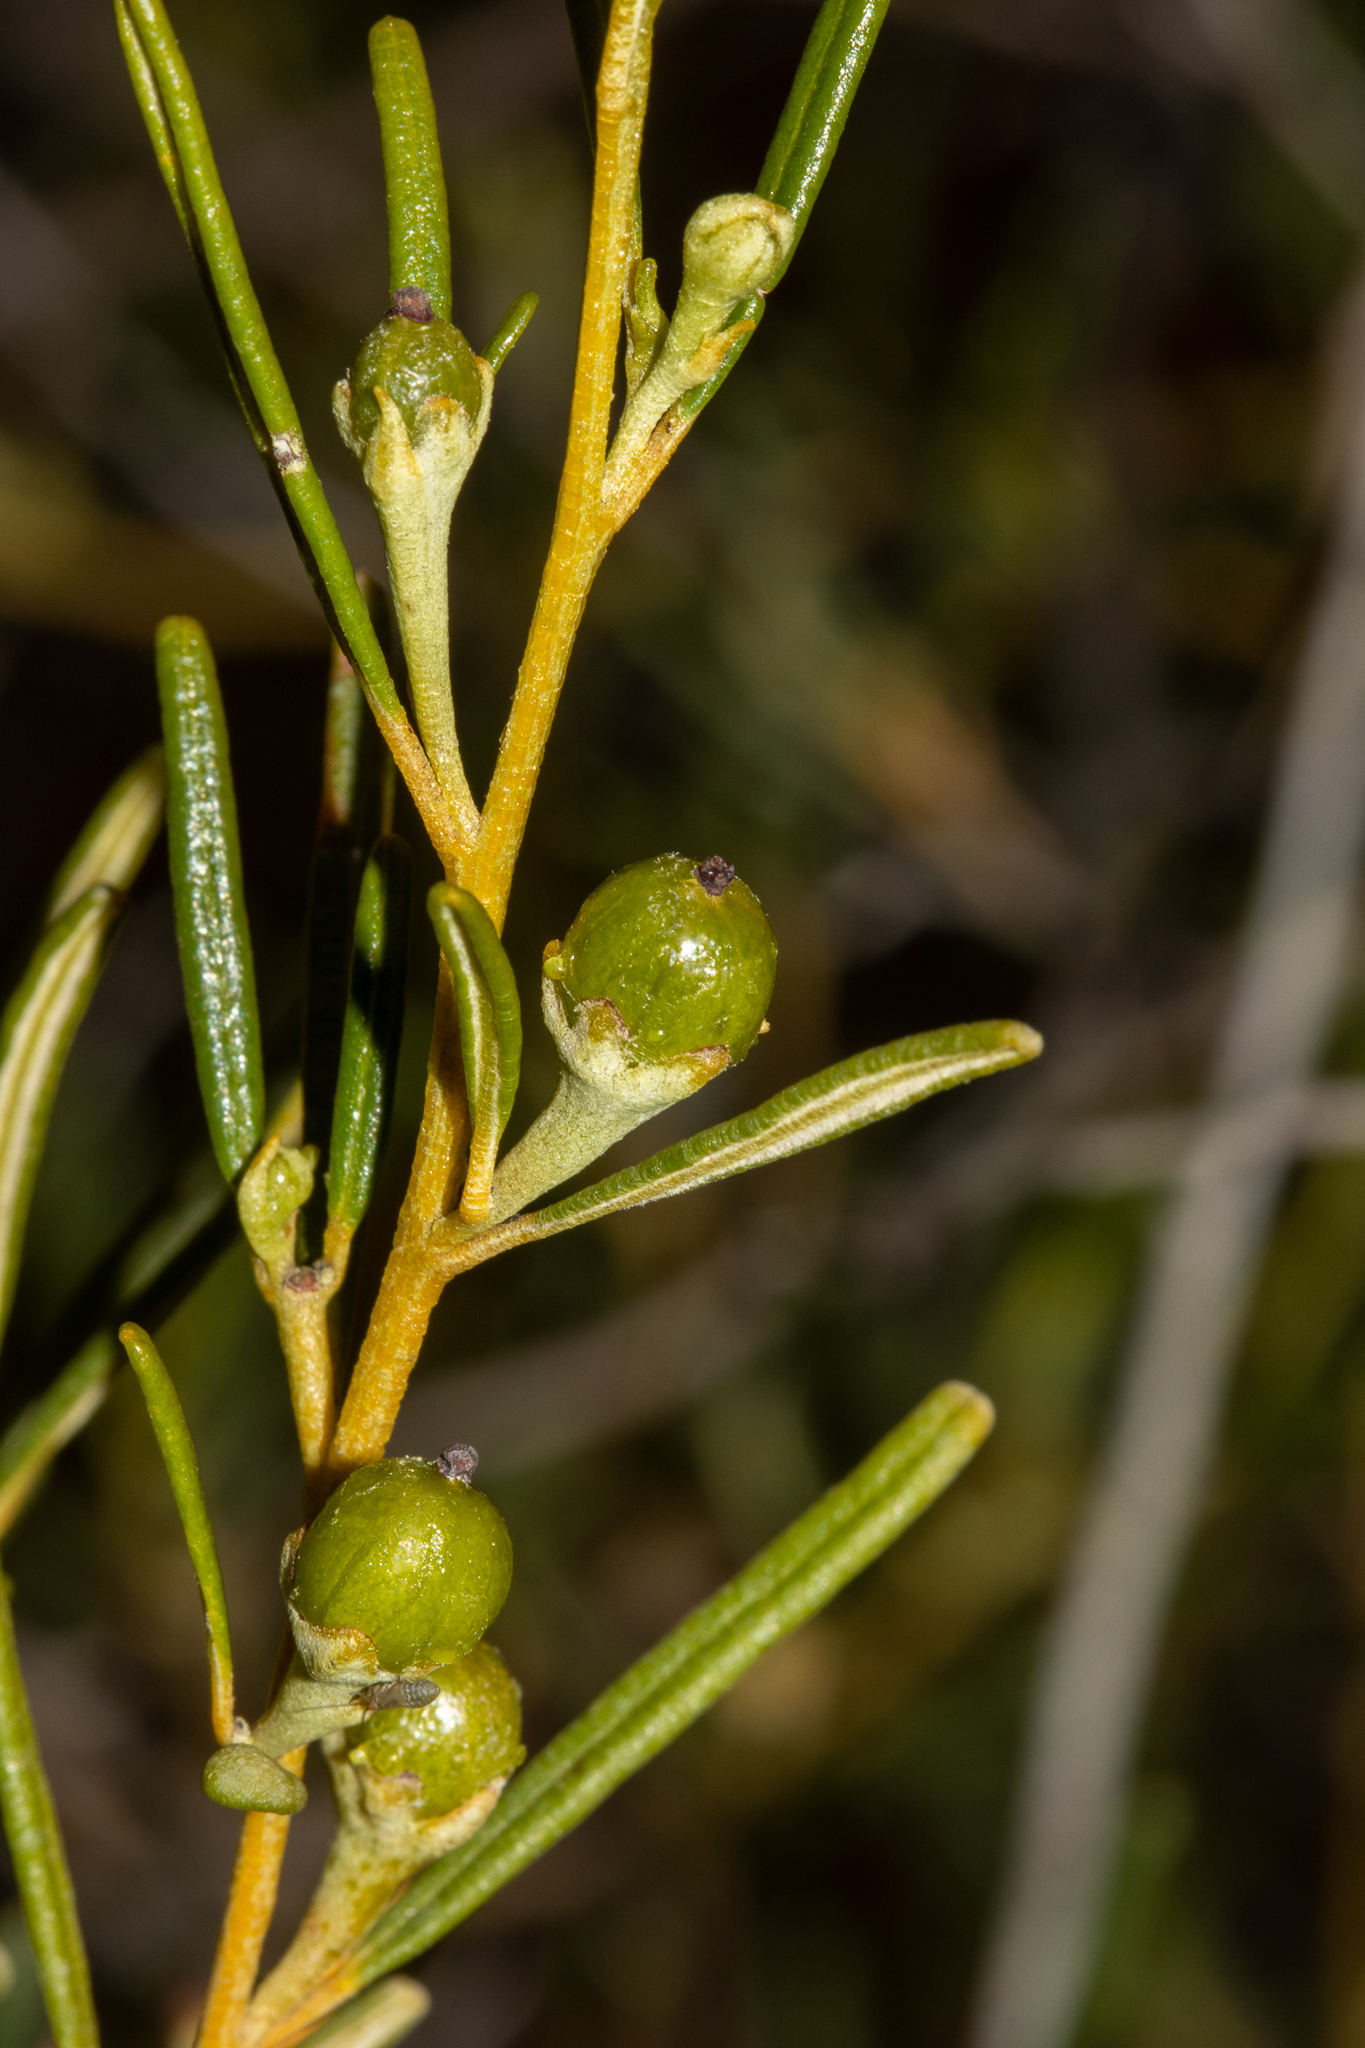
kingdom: Plantae
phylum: Tracheophyta
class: Magnoliopsida
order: Malpighiales
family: Euphorbiaceae
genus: Beyeria
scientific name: Beyeria lechenaultii
